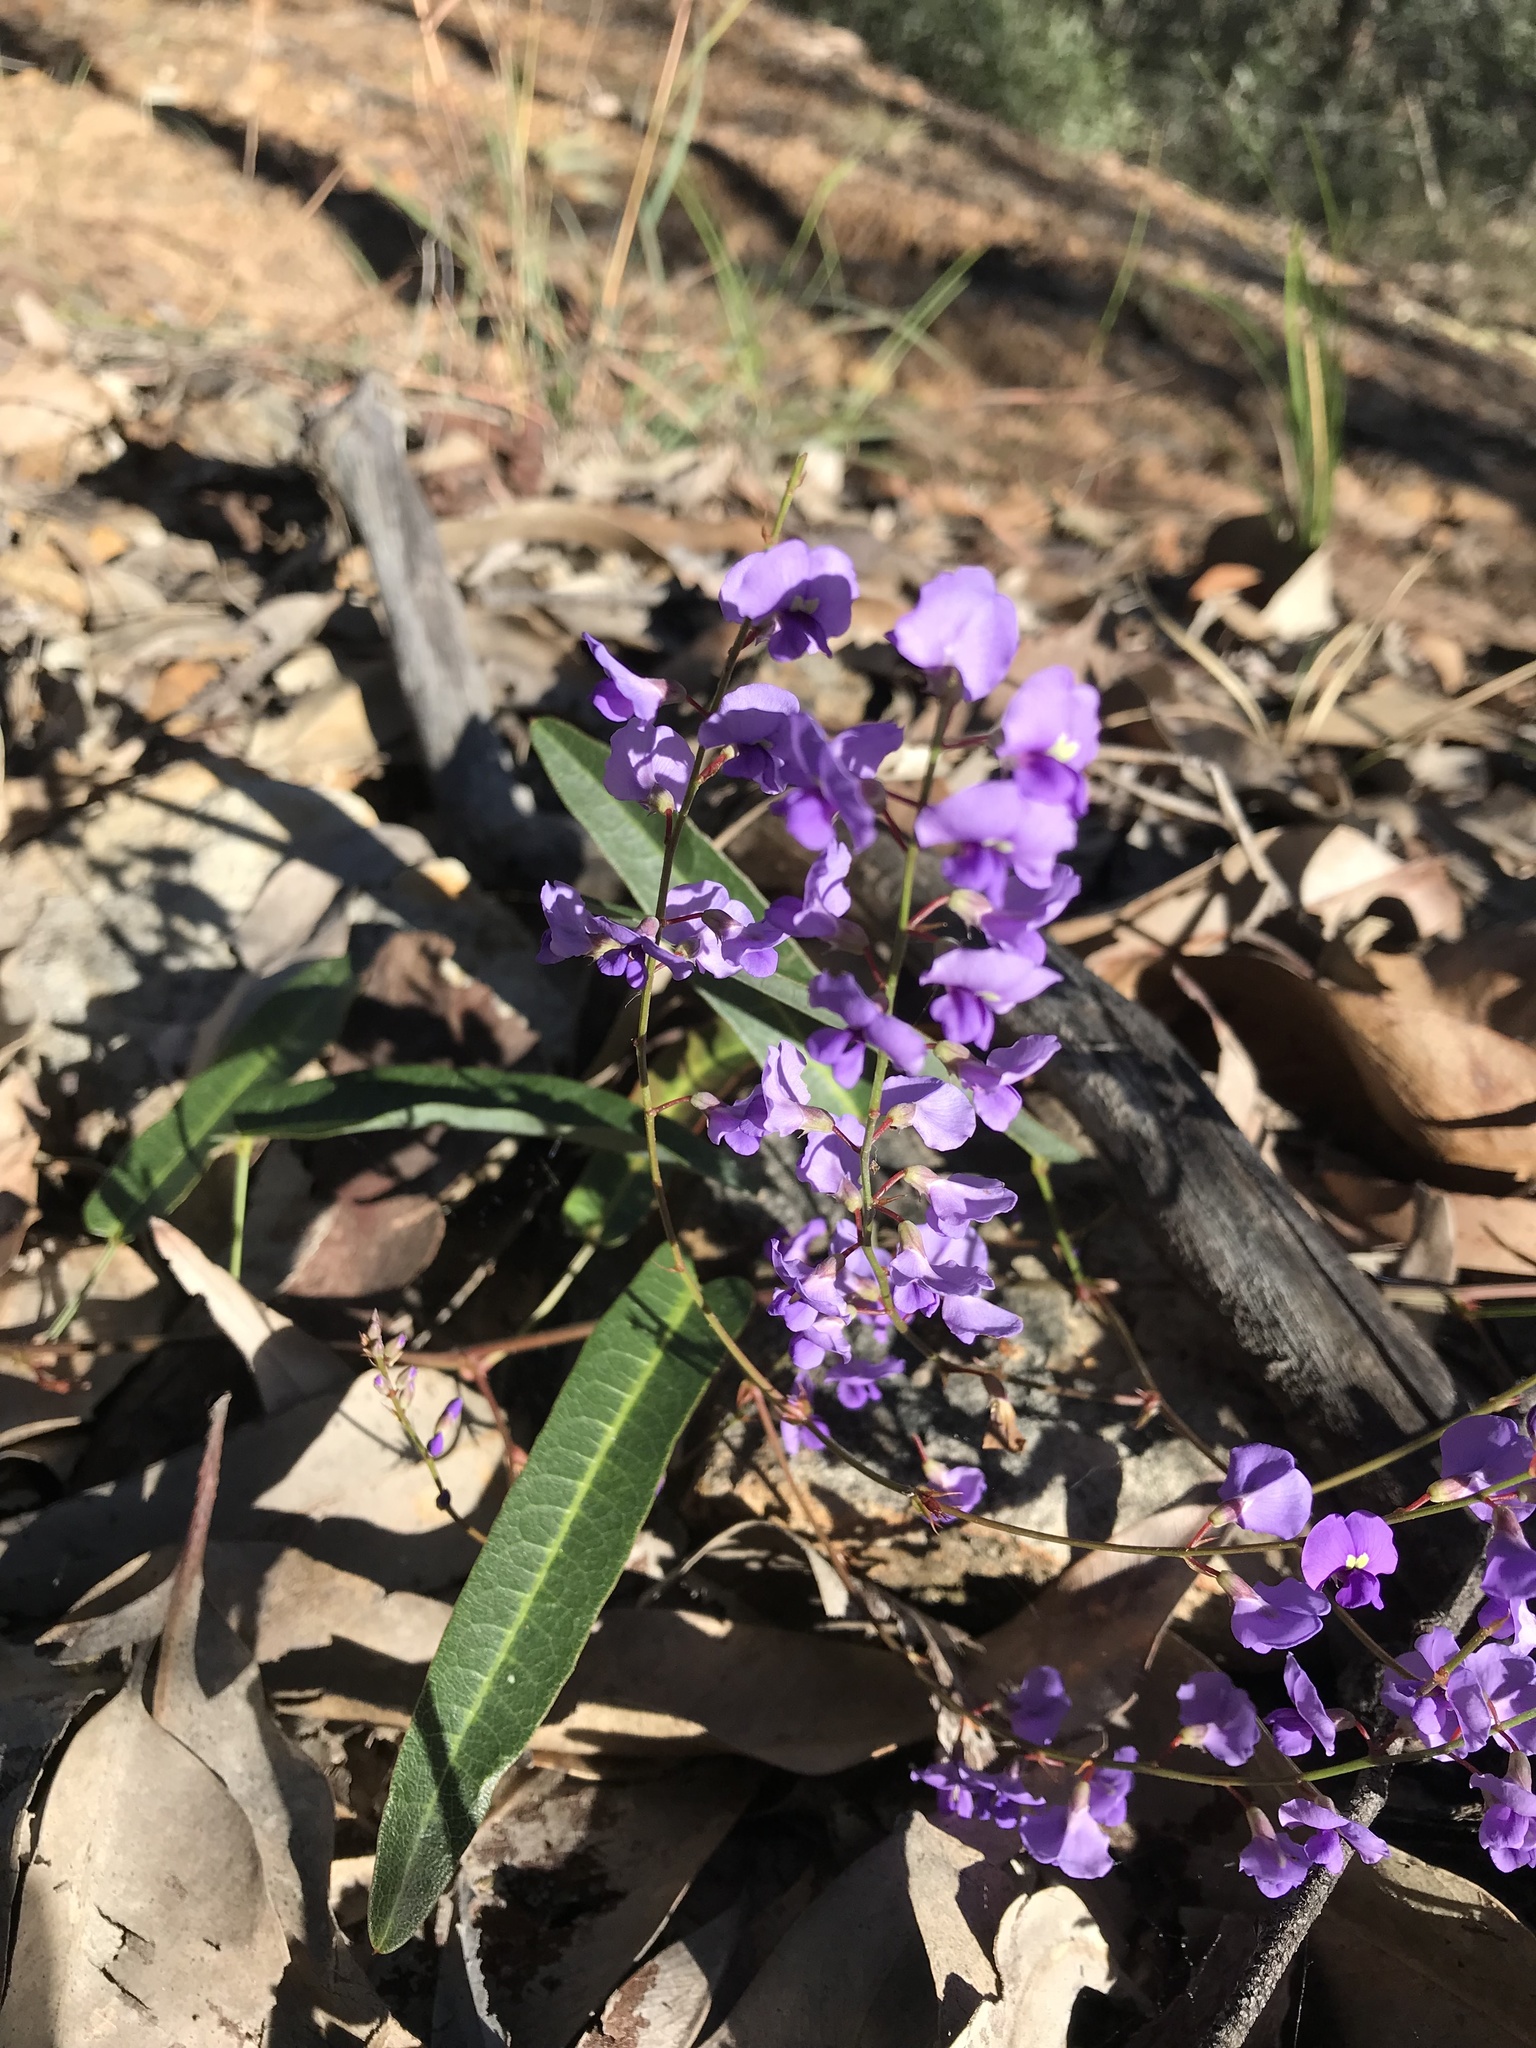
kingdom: Plantae
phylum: Tracheophyta
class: Magnoliopsida
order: Fabales
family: Fabaceae
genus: Hardenbergia
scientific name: Hardenbergia violacea
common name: Coral-pea
